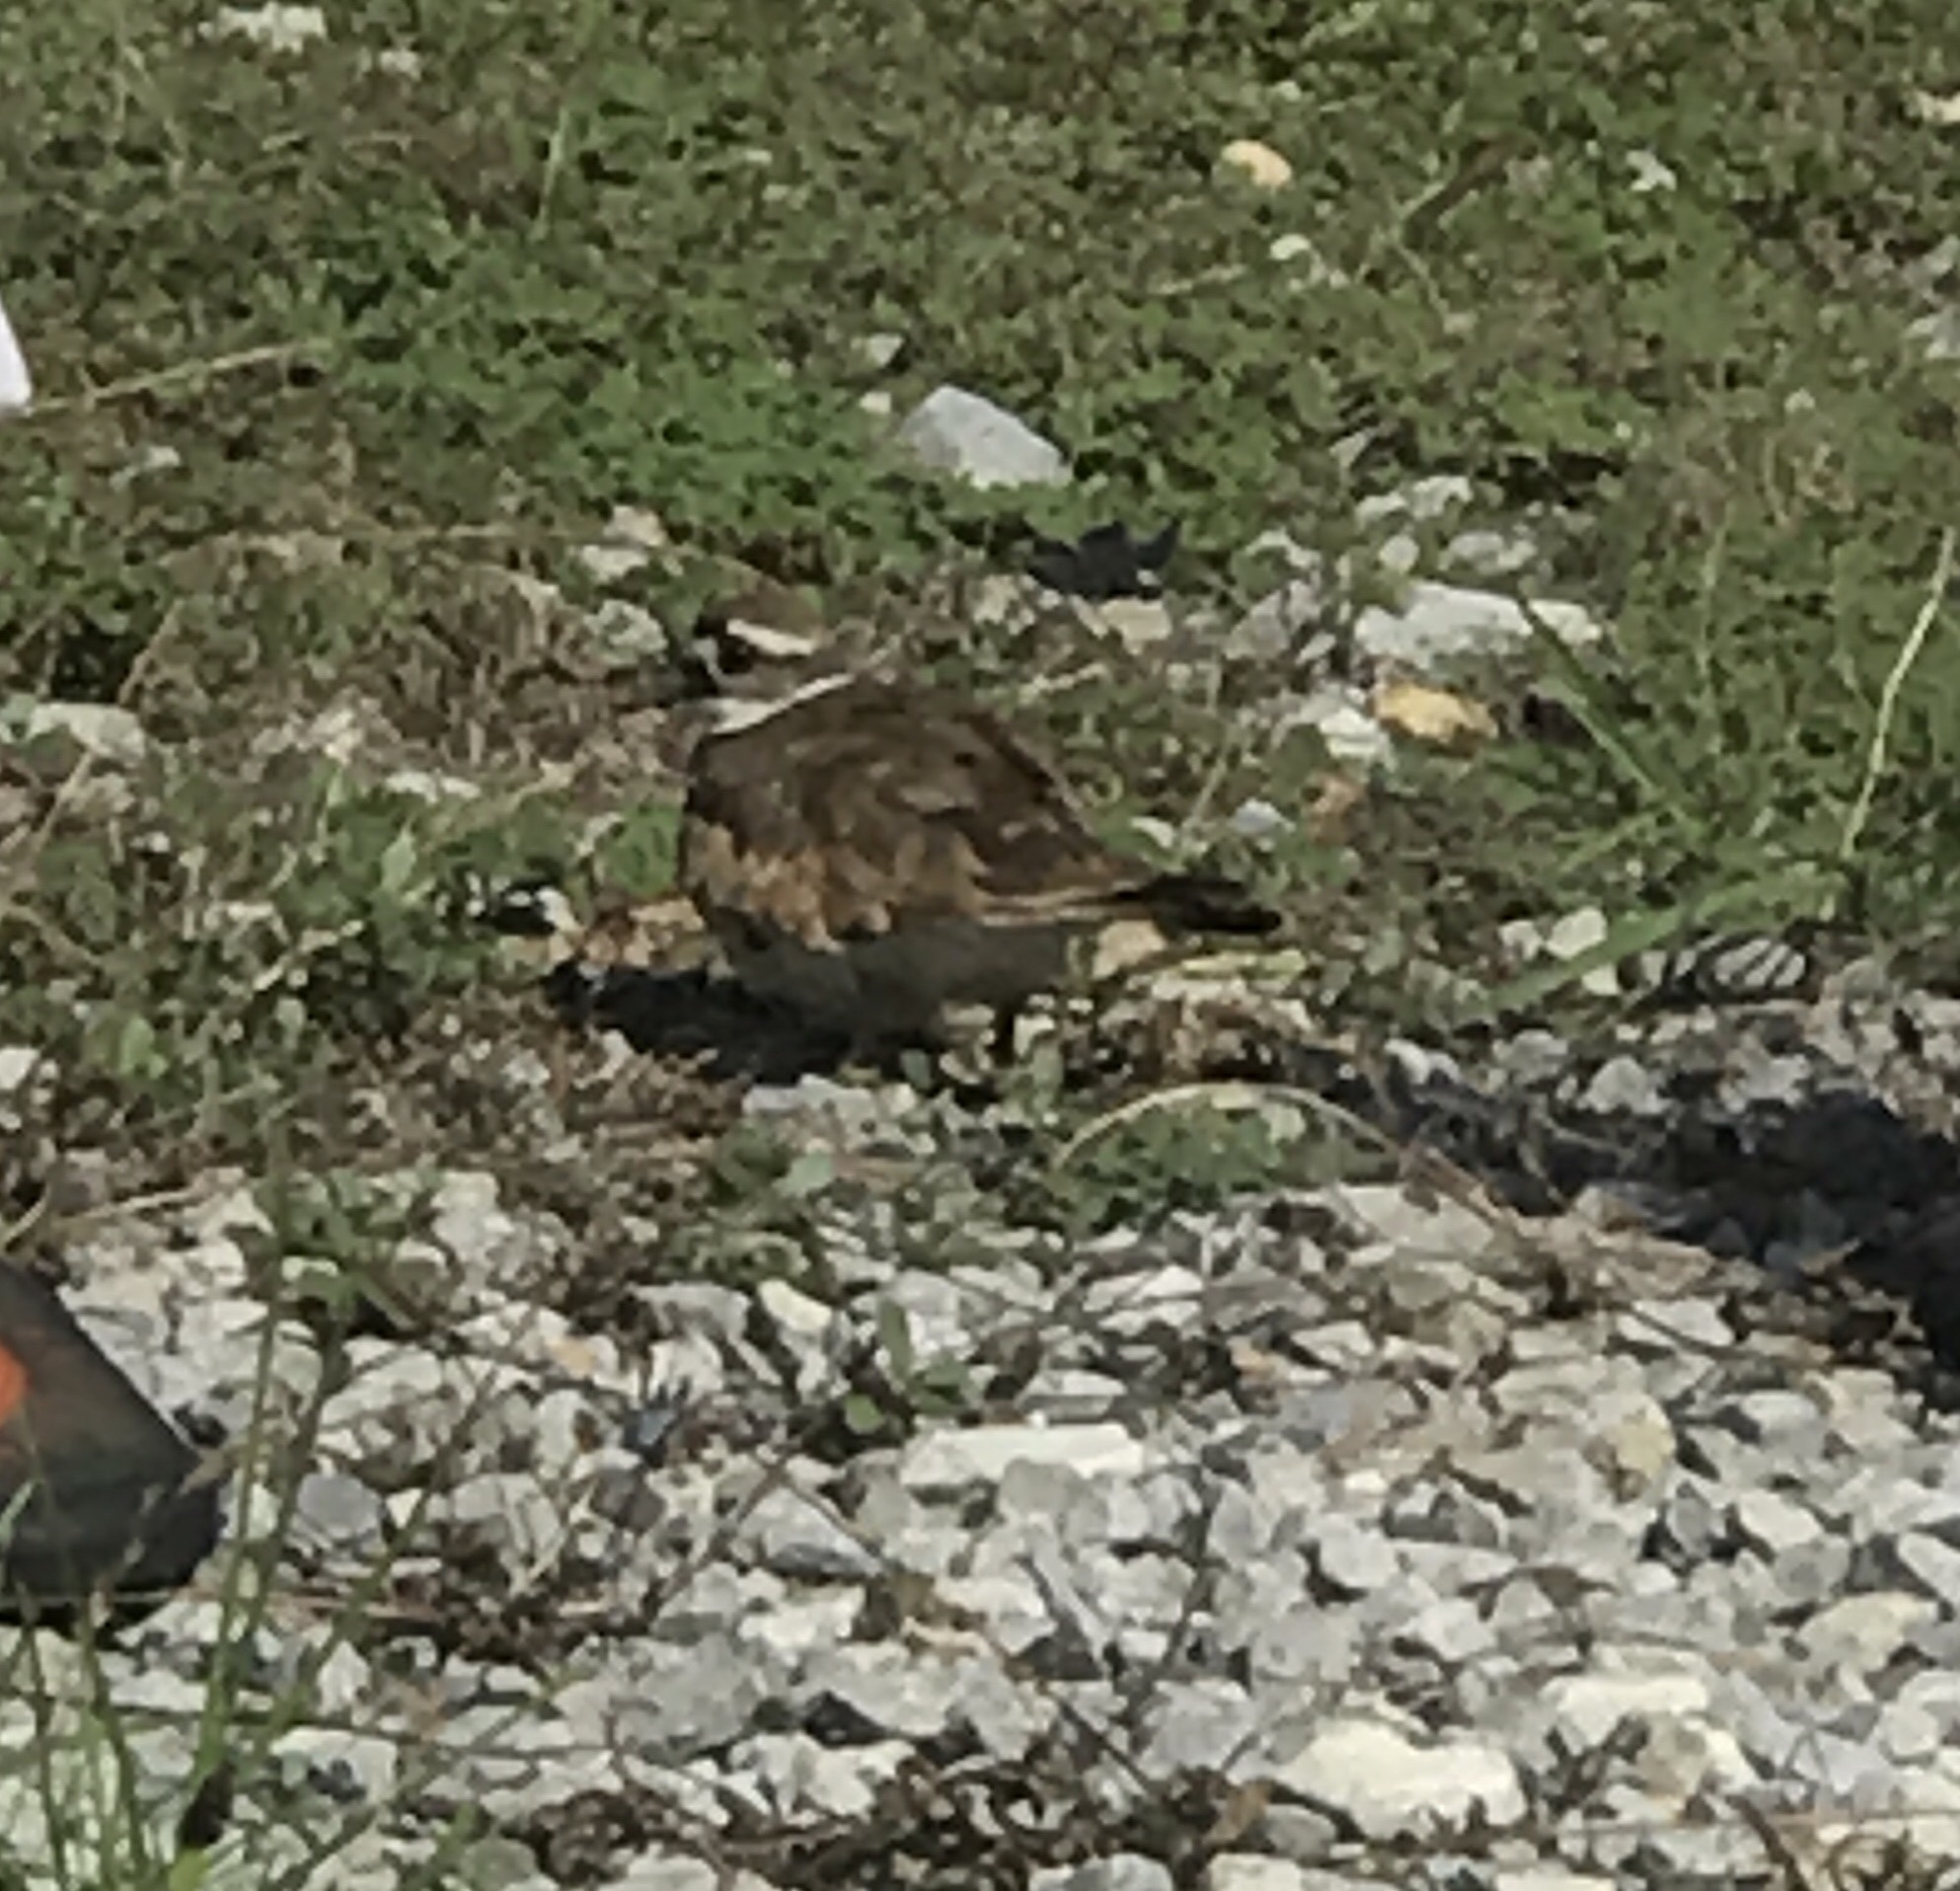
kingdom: Animalia
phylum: Chordata
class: Aves
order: Charadriiformes
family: Charadriidae
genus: Charadrius
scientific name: Charadrius vociferus
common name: Killdeer
